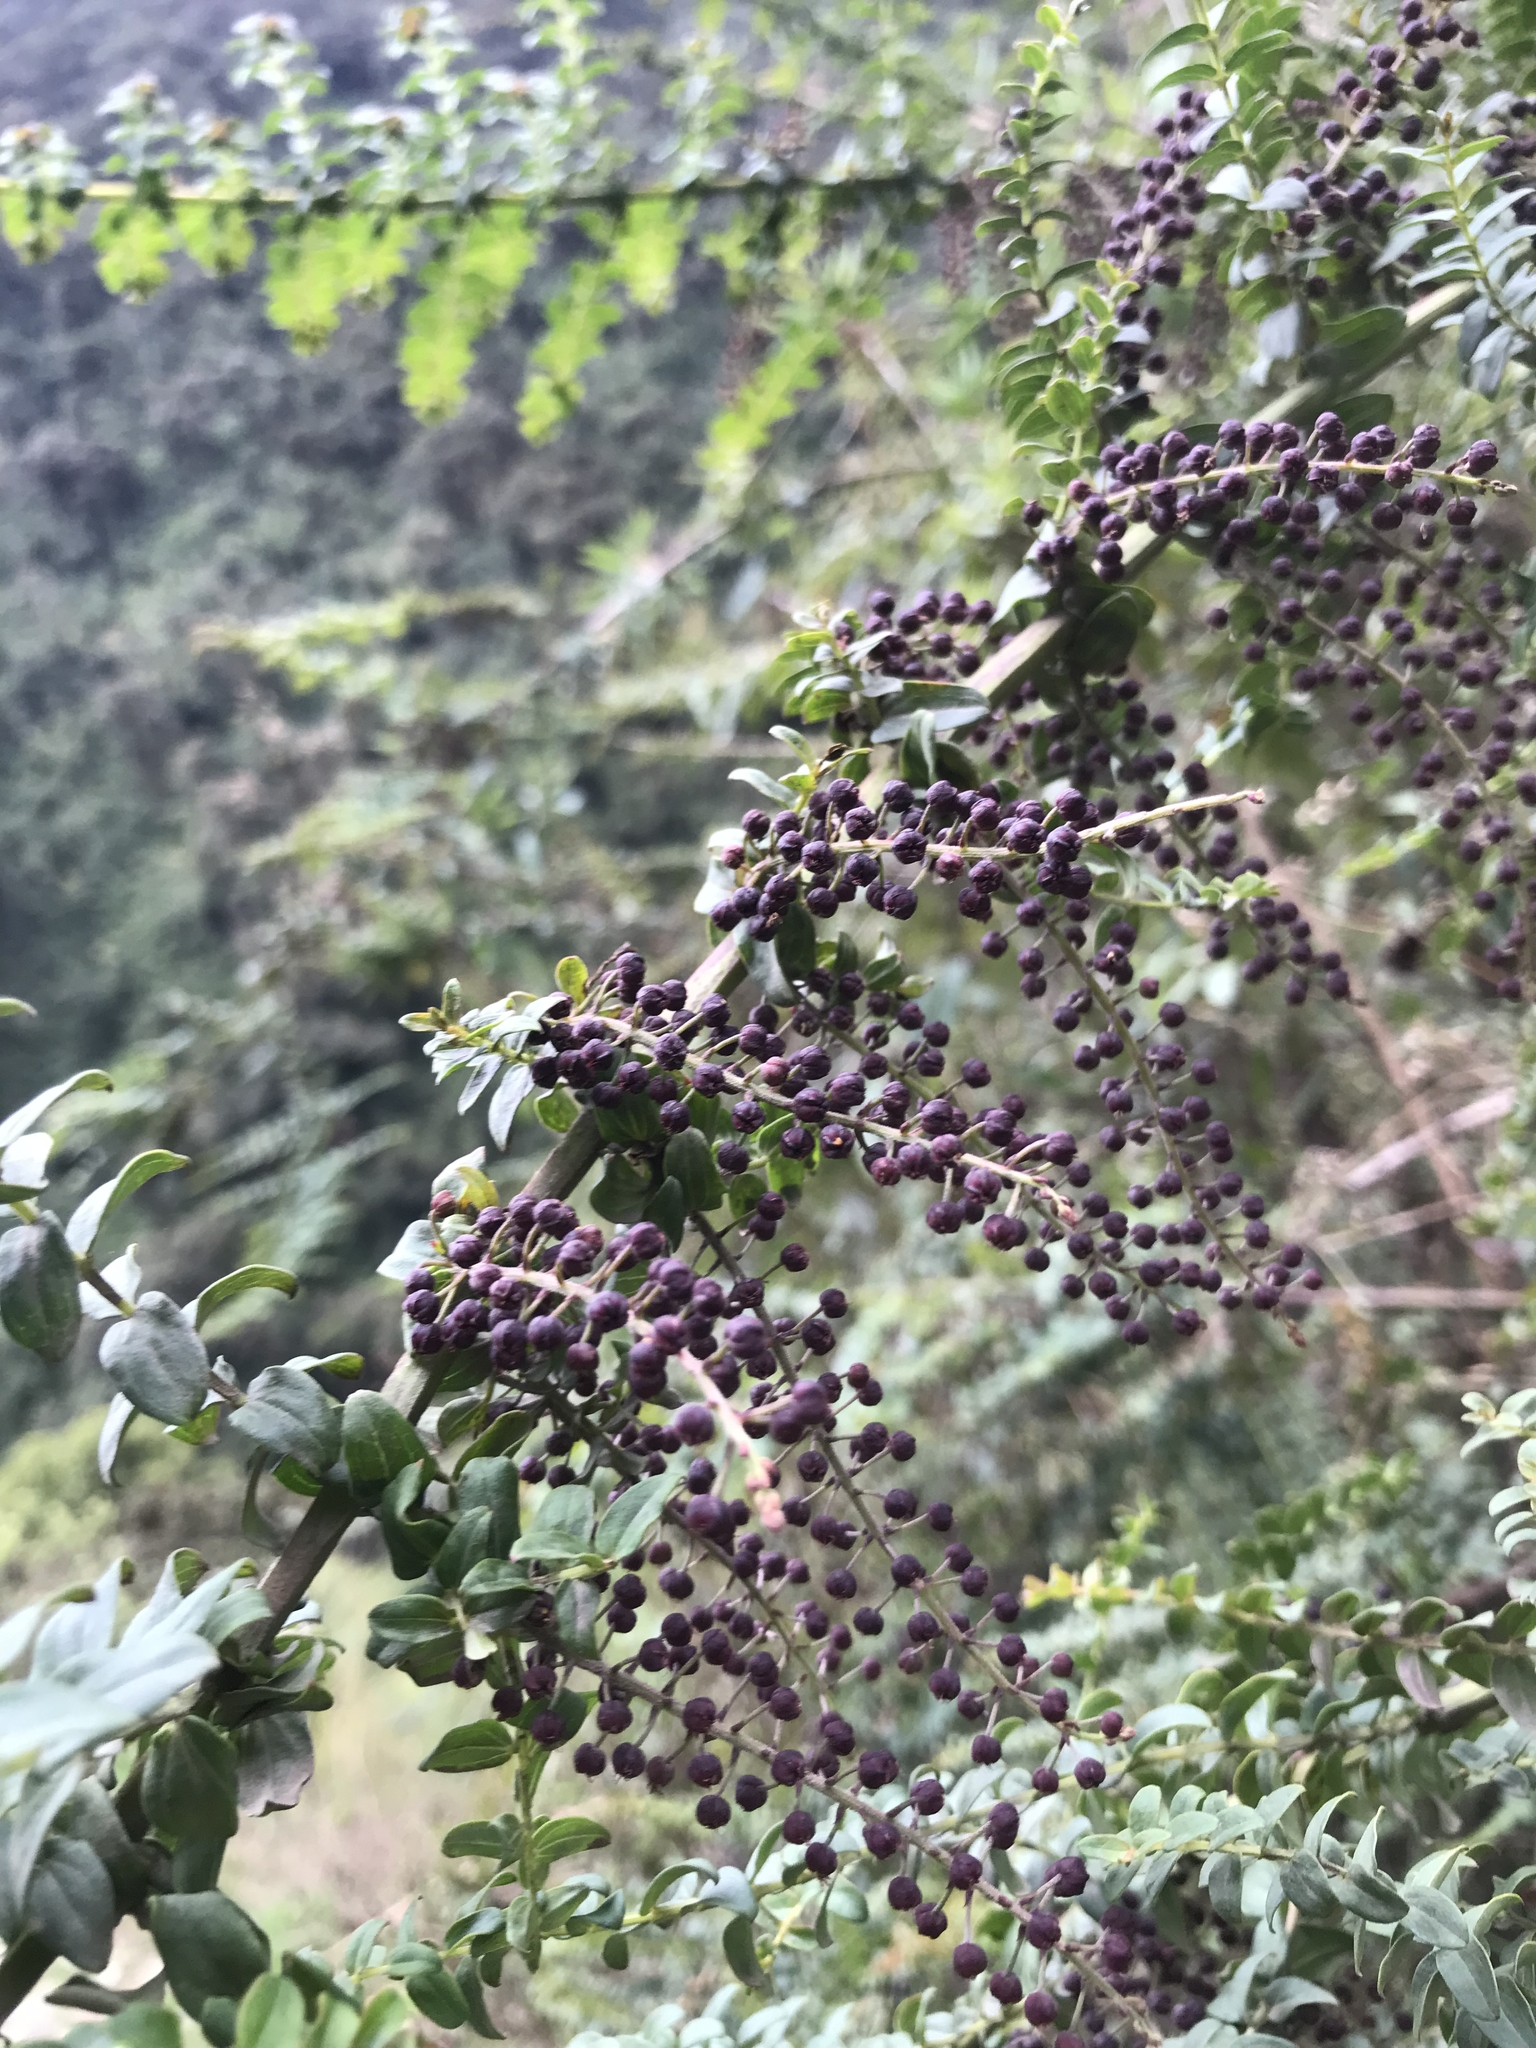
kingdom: Plantae
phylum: Tracheophyta
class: Magnoliopsida
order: Cucurbitales
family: Coriariaceae
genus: Coriaria
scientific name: Coriaria ruscifolia
